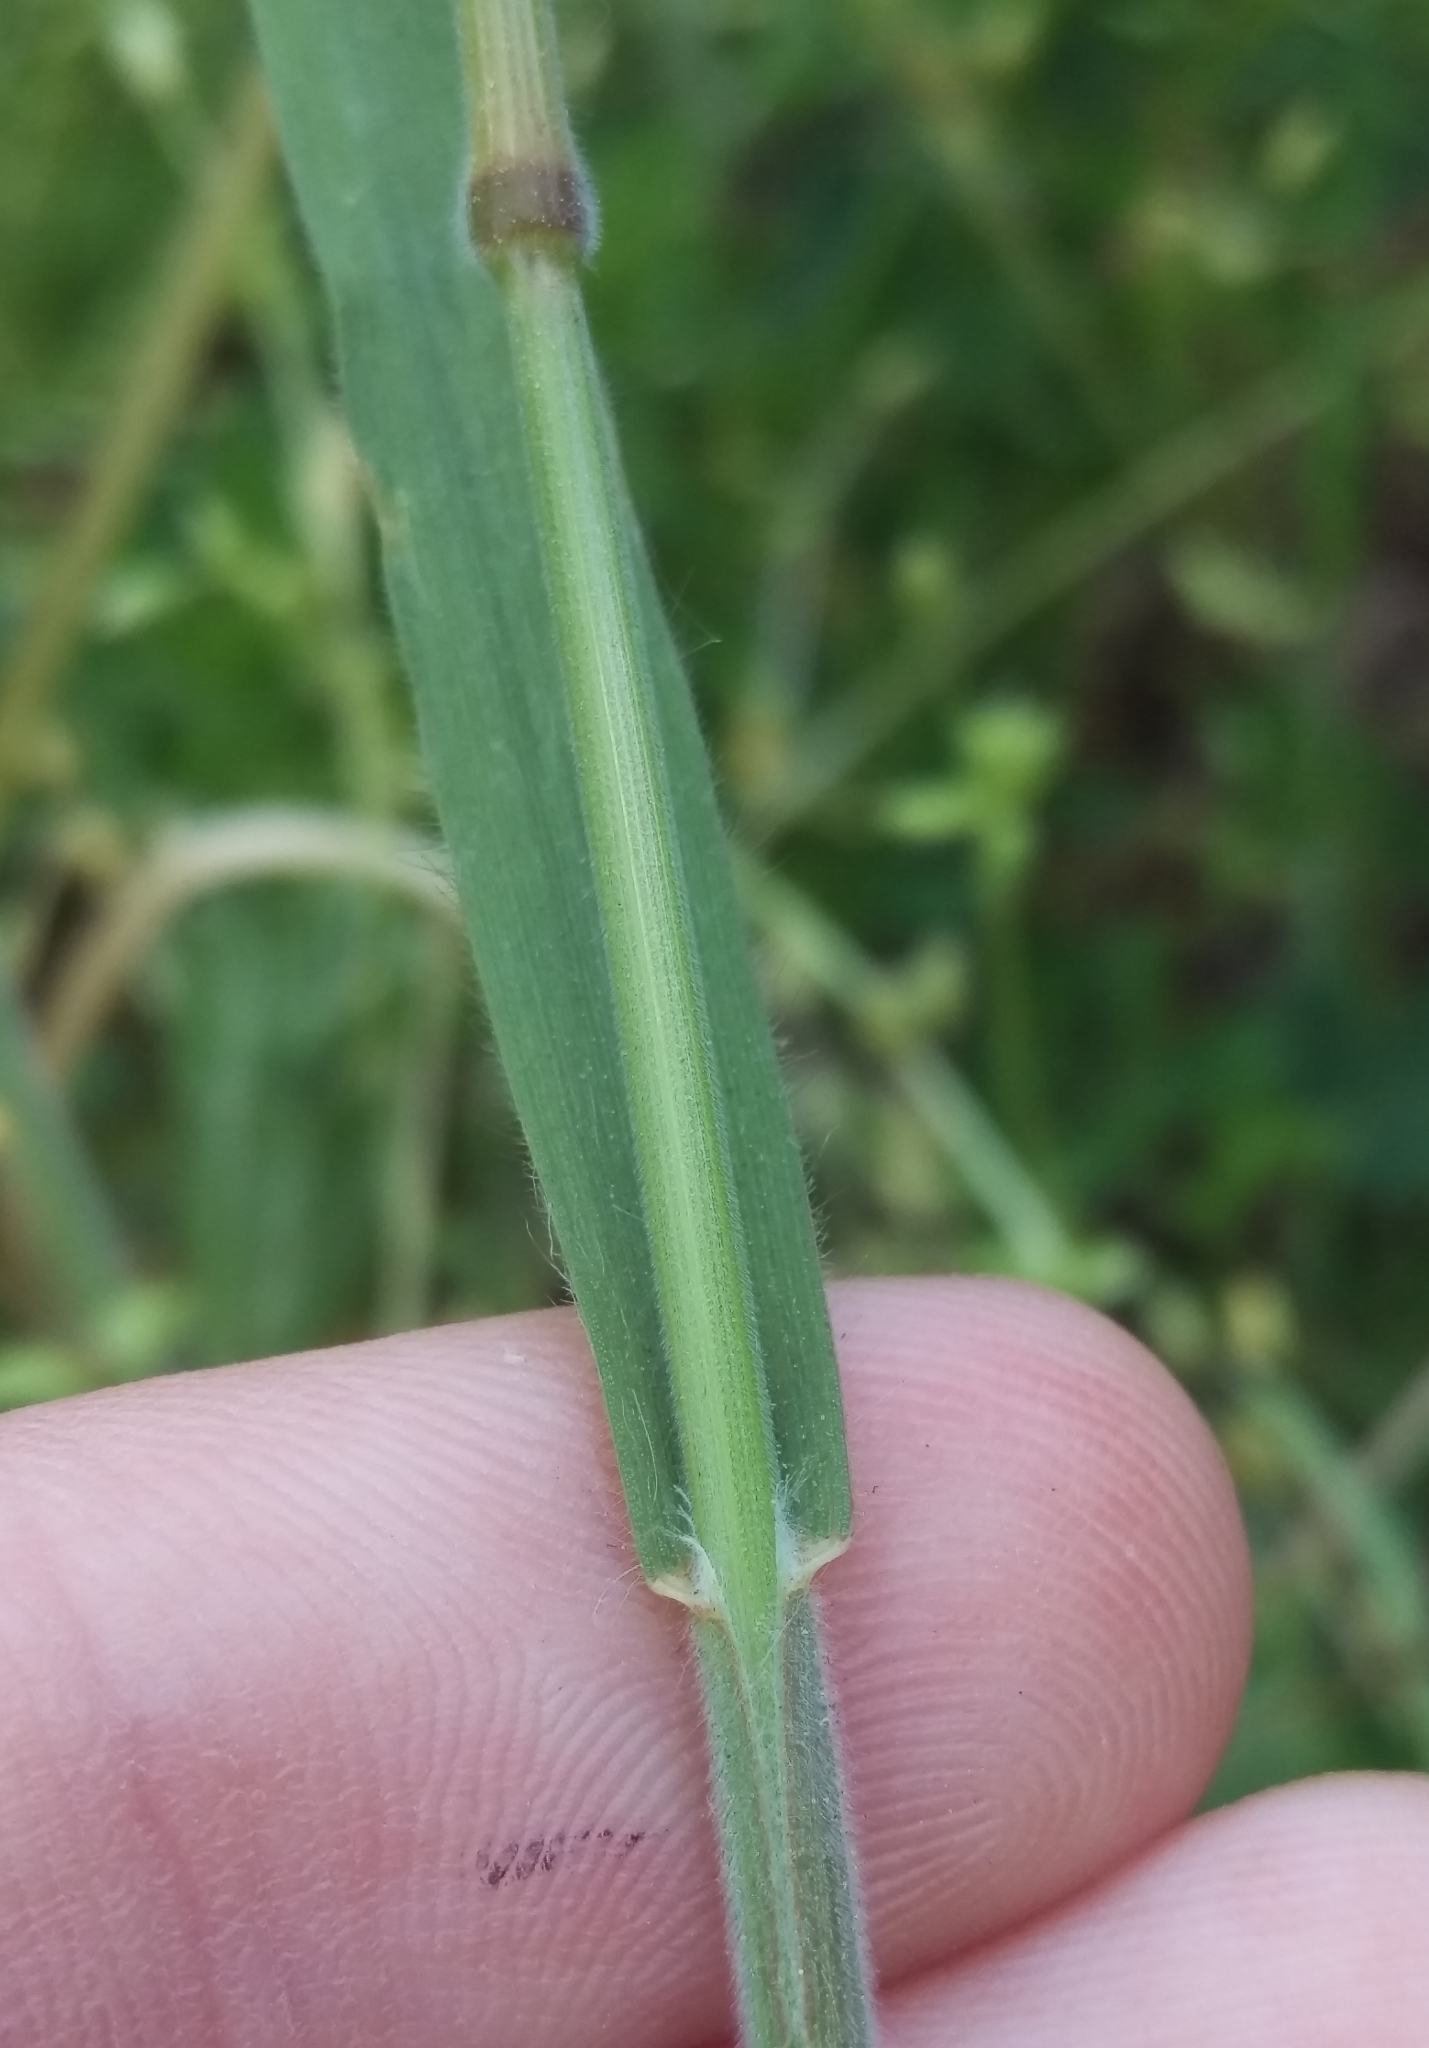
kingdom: Plantae
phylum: Tracheophyta
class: Liliopsida
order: Poales
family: Poaceae
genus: Bromus
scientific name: Bromus hordeaceus
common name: Soft brome
